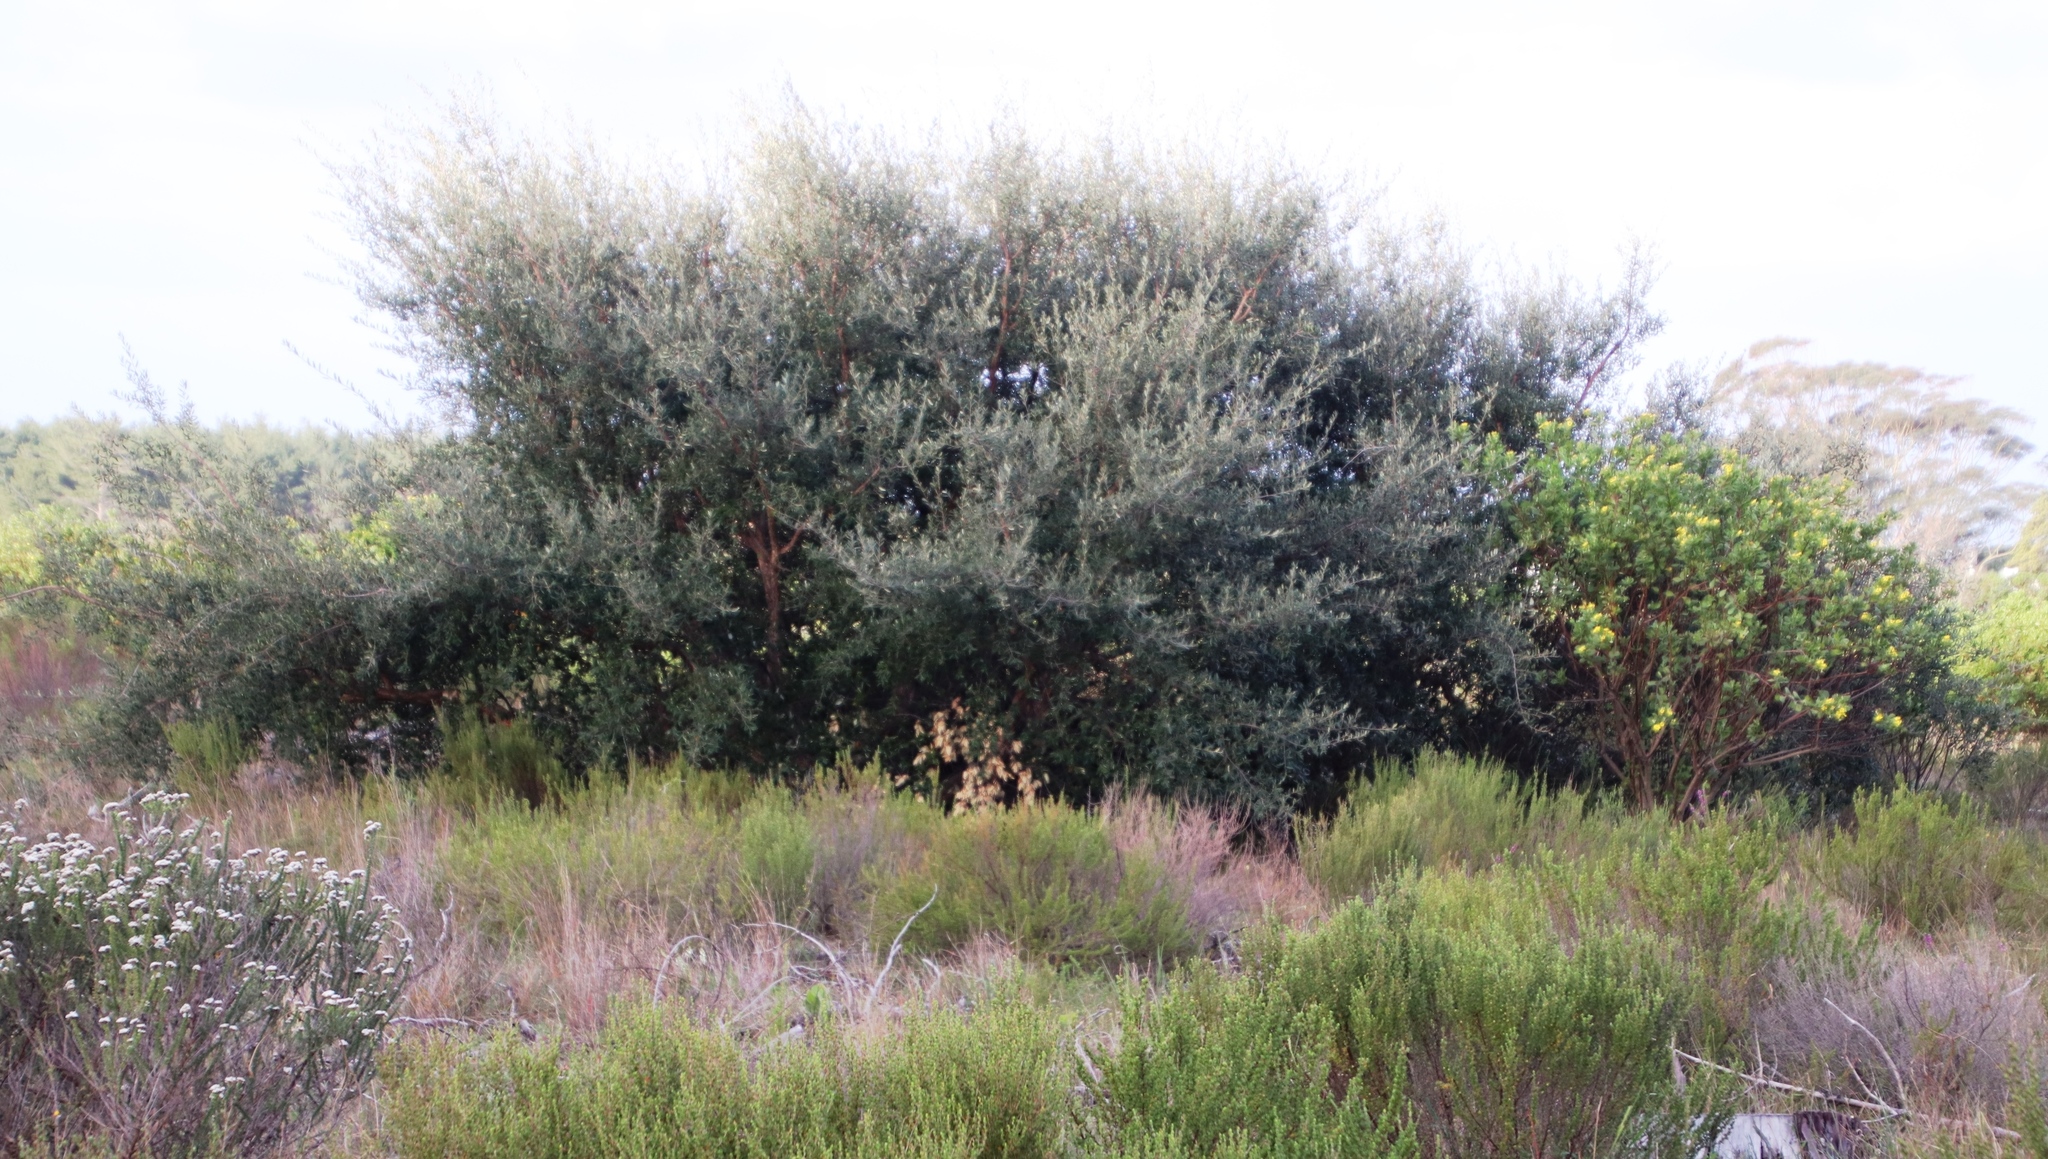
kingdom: Plantae
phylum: Tracheophyta
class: Magnoliopsida
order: Fagales
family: Fagaceae
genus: Quercus
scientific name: Quercus suber
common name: Cork oak
